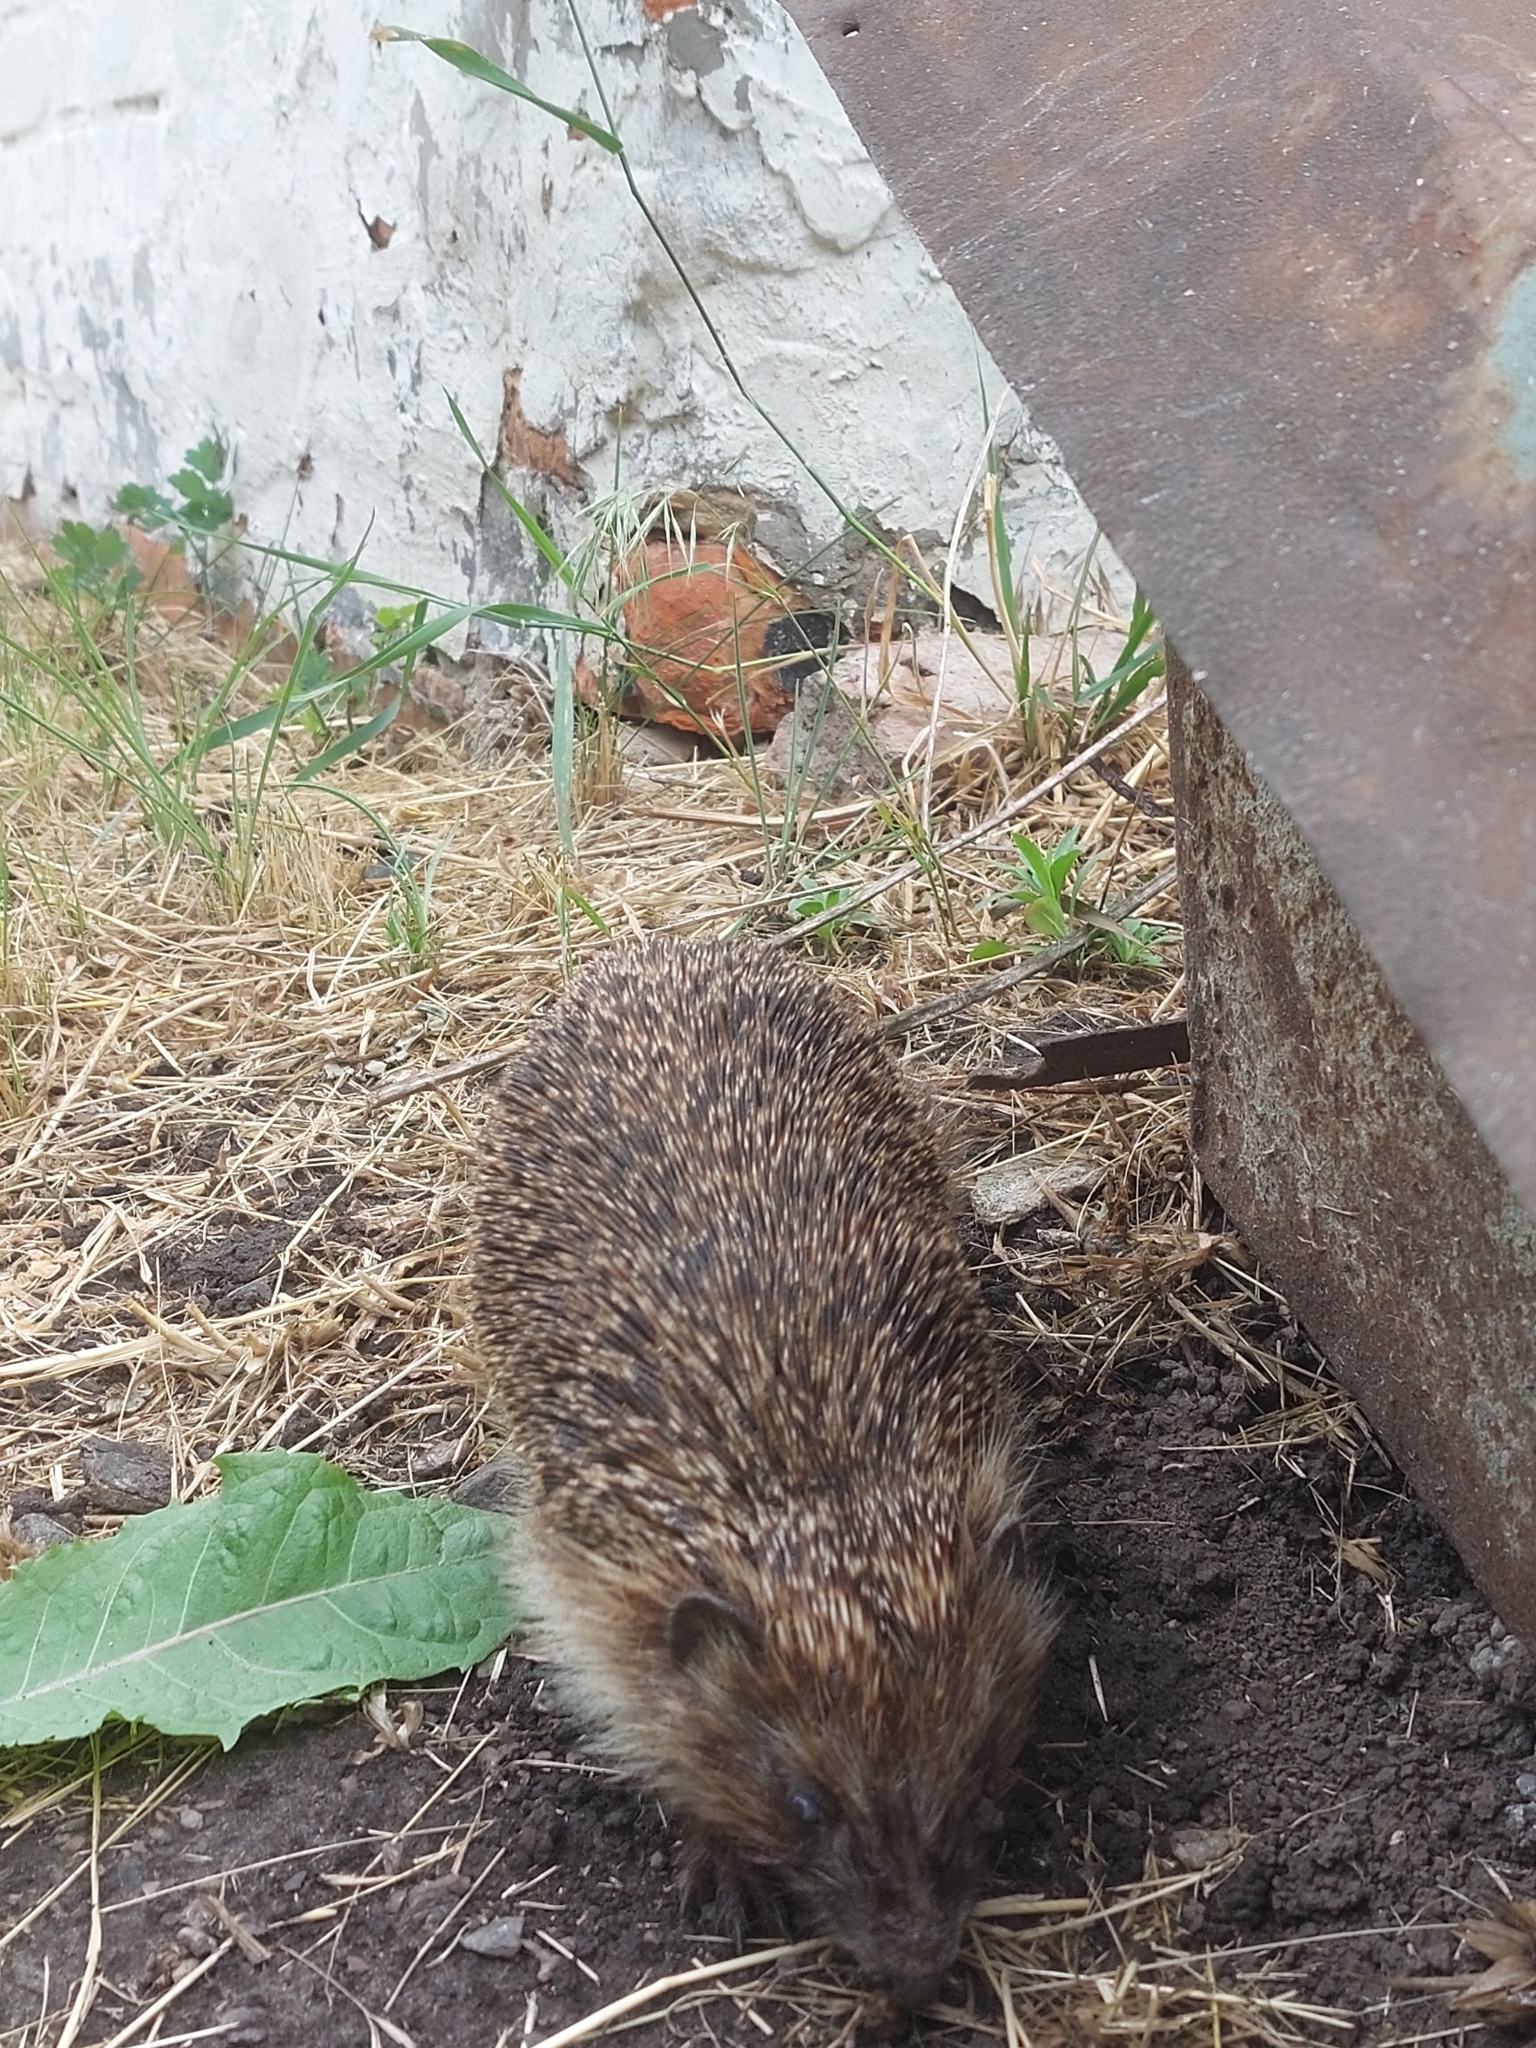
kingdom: Animalia
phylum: Chordata
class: Mammalia
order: Erinaceomorpha
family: Erinaceidae
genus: Erinaceus
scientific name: Erinaceus roumanicus
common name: Northern white-breasted hedgehog
